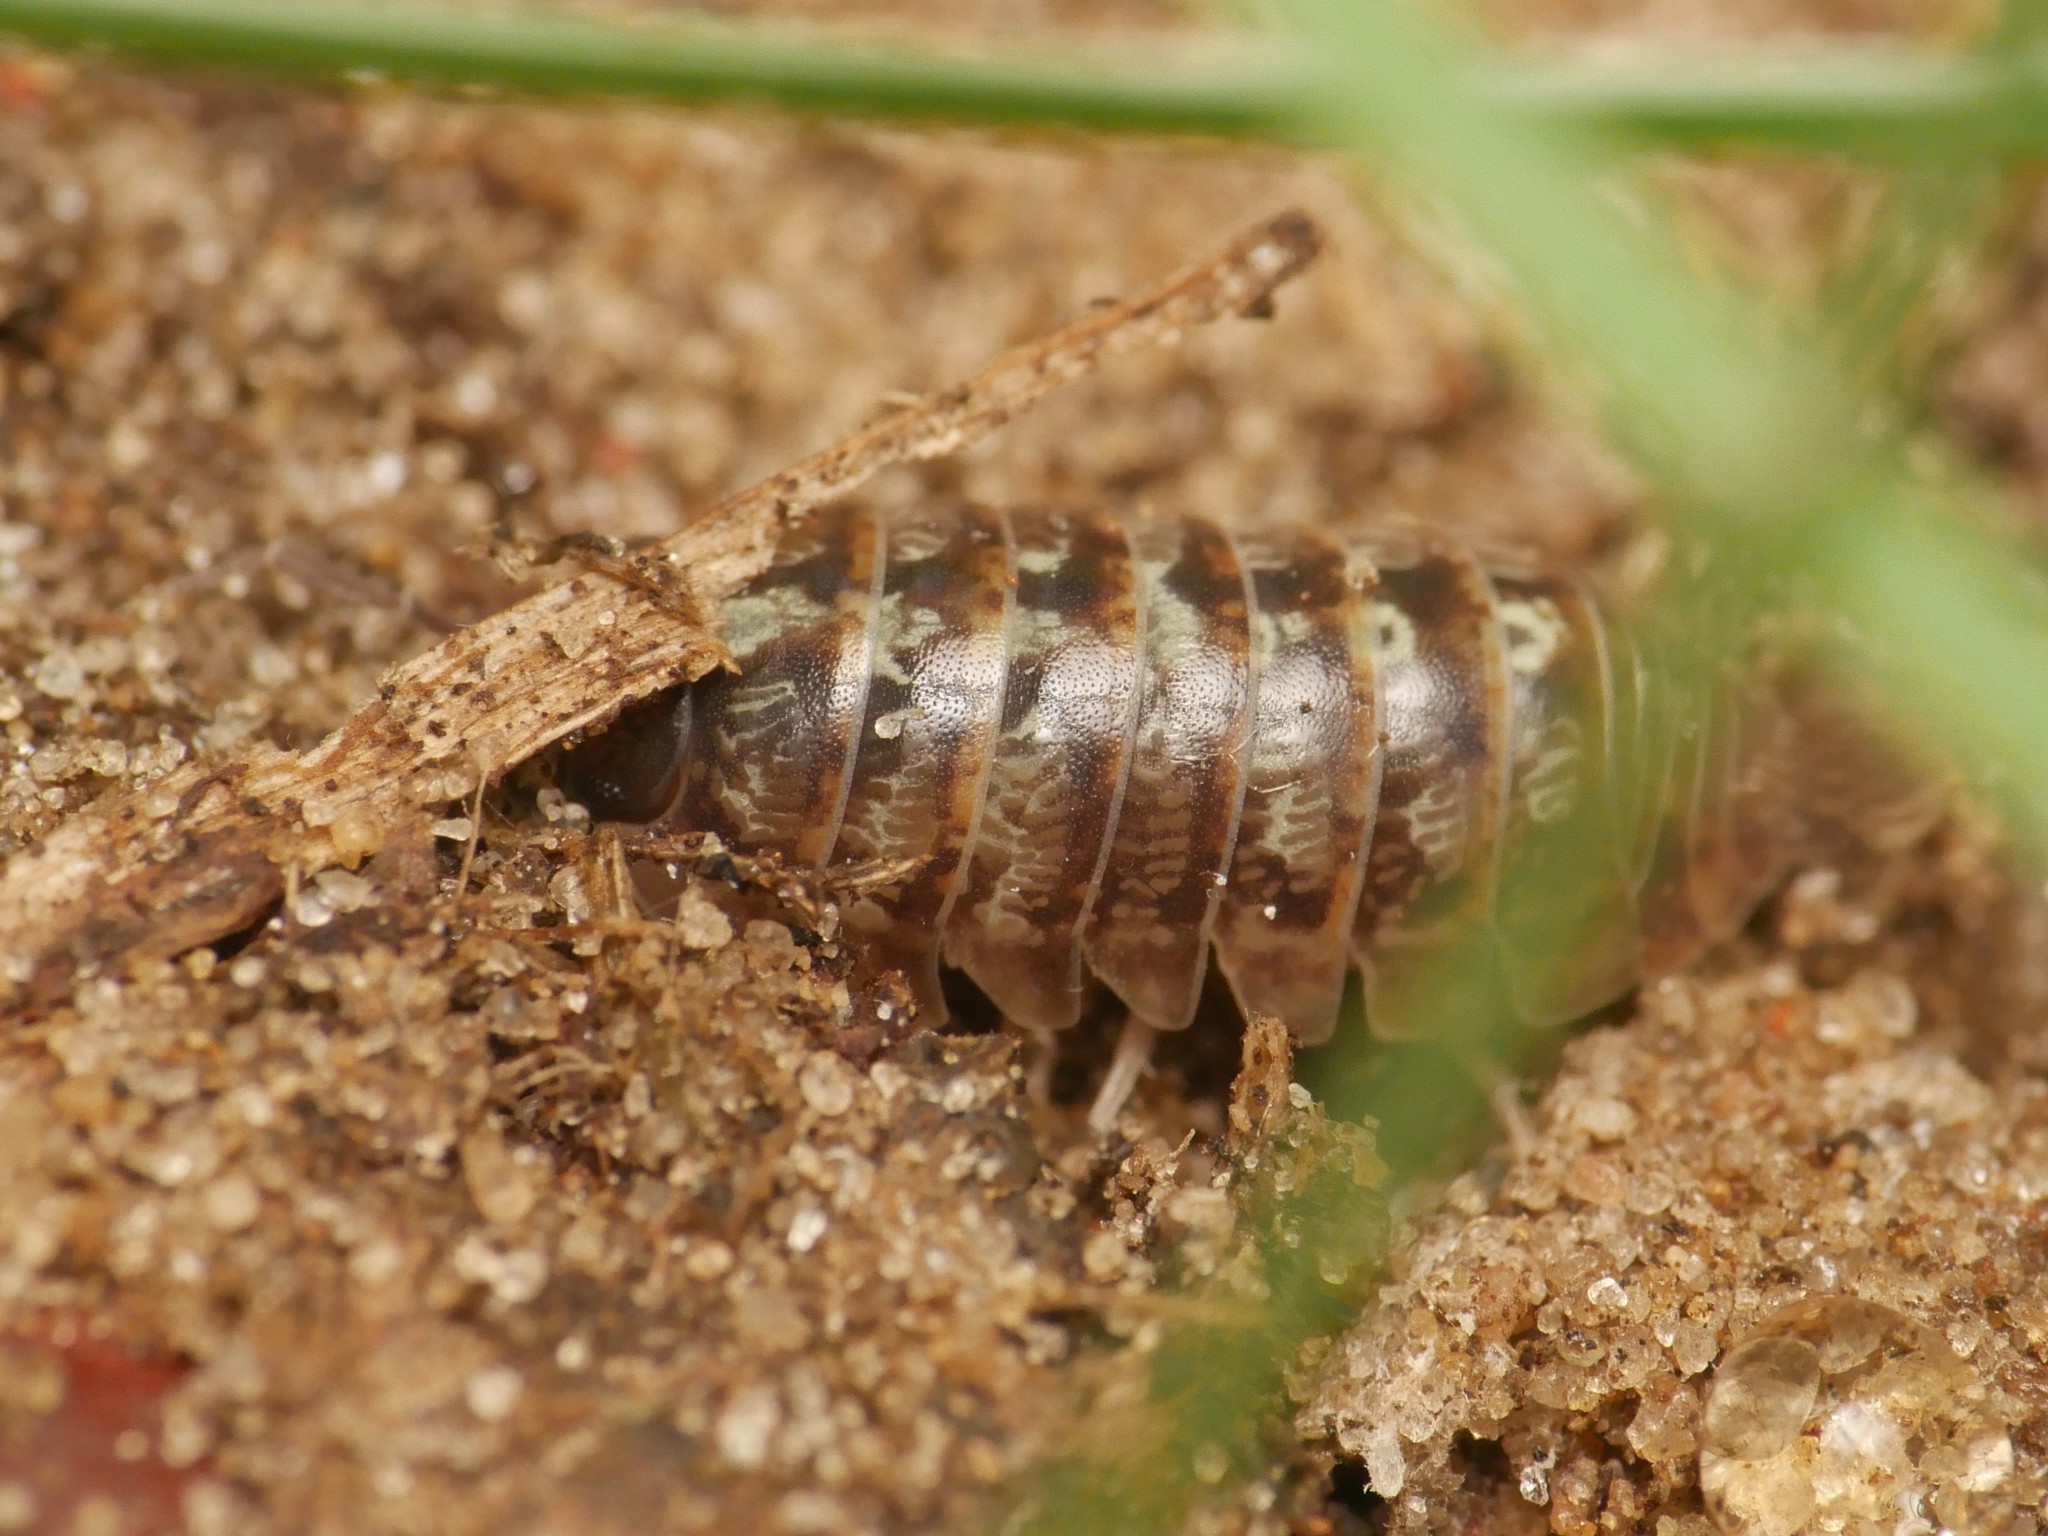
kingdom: Animalia
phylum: Arthropoda
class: Malacostraca
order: Isopoda
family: Armadillidiidae
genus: Armadillidium
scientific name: Armadillidium vulgare
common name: Common pill woodlouse
